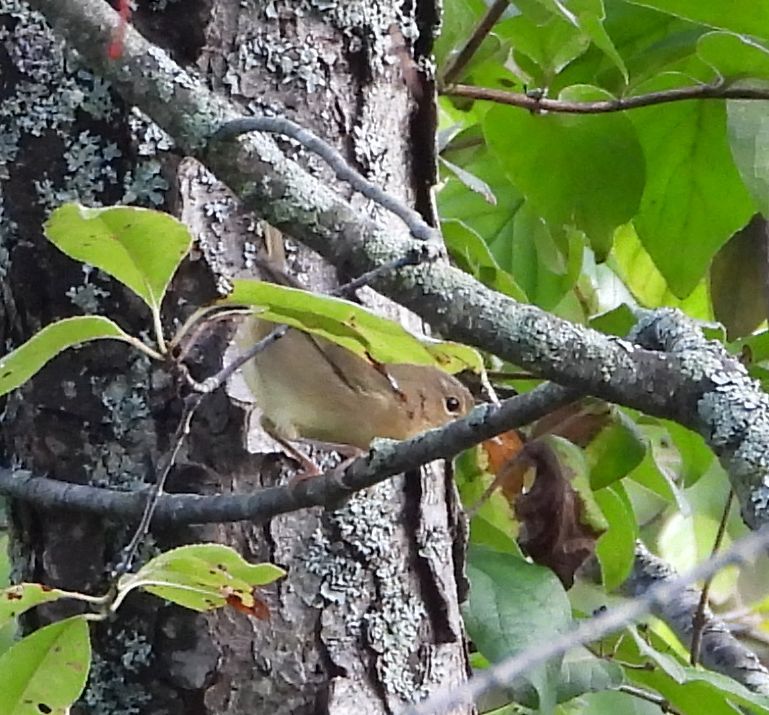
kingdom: Animalia
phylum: Chordata
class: Aves
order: Passeriformes
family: Parulidae
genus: Geothlypis
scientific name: Geothlypis trichas
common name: Common yellowthroat
